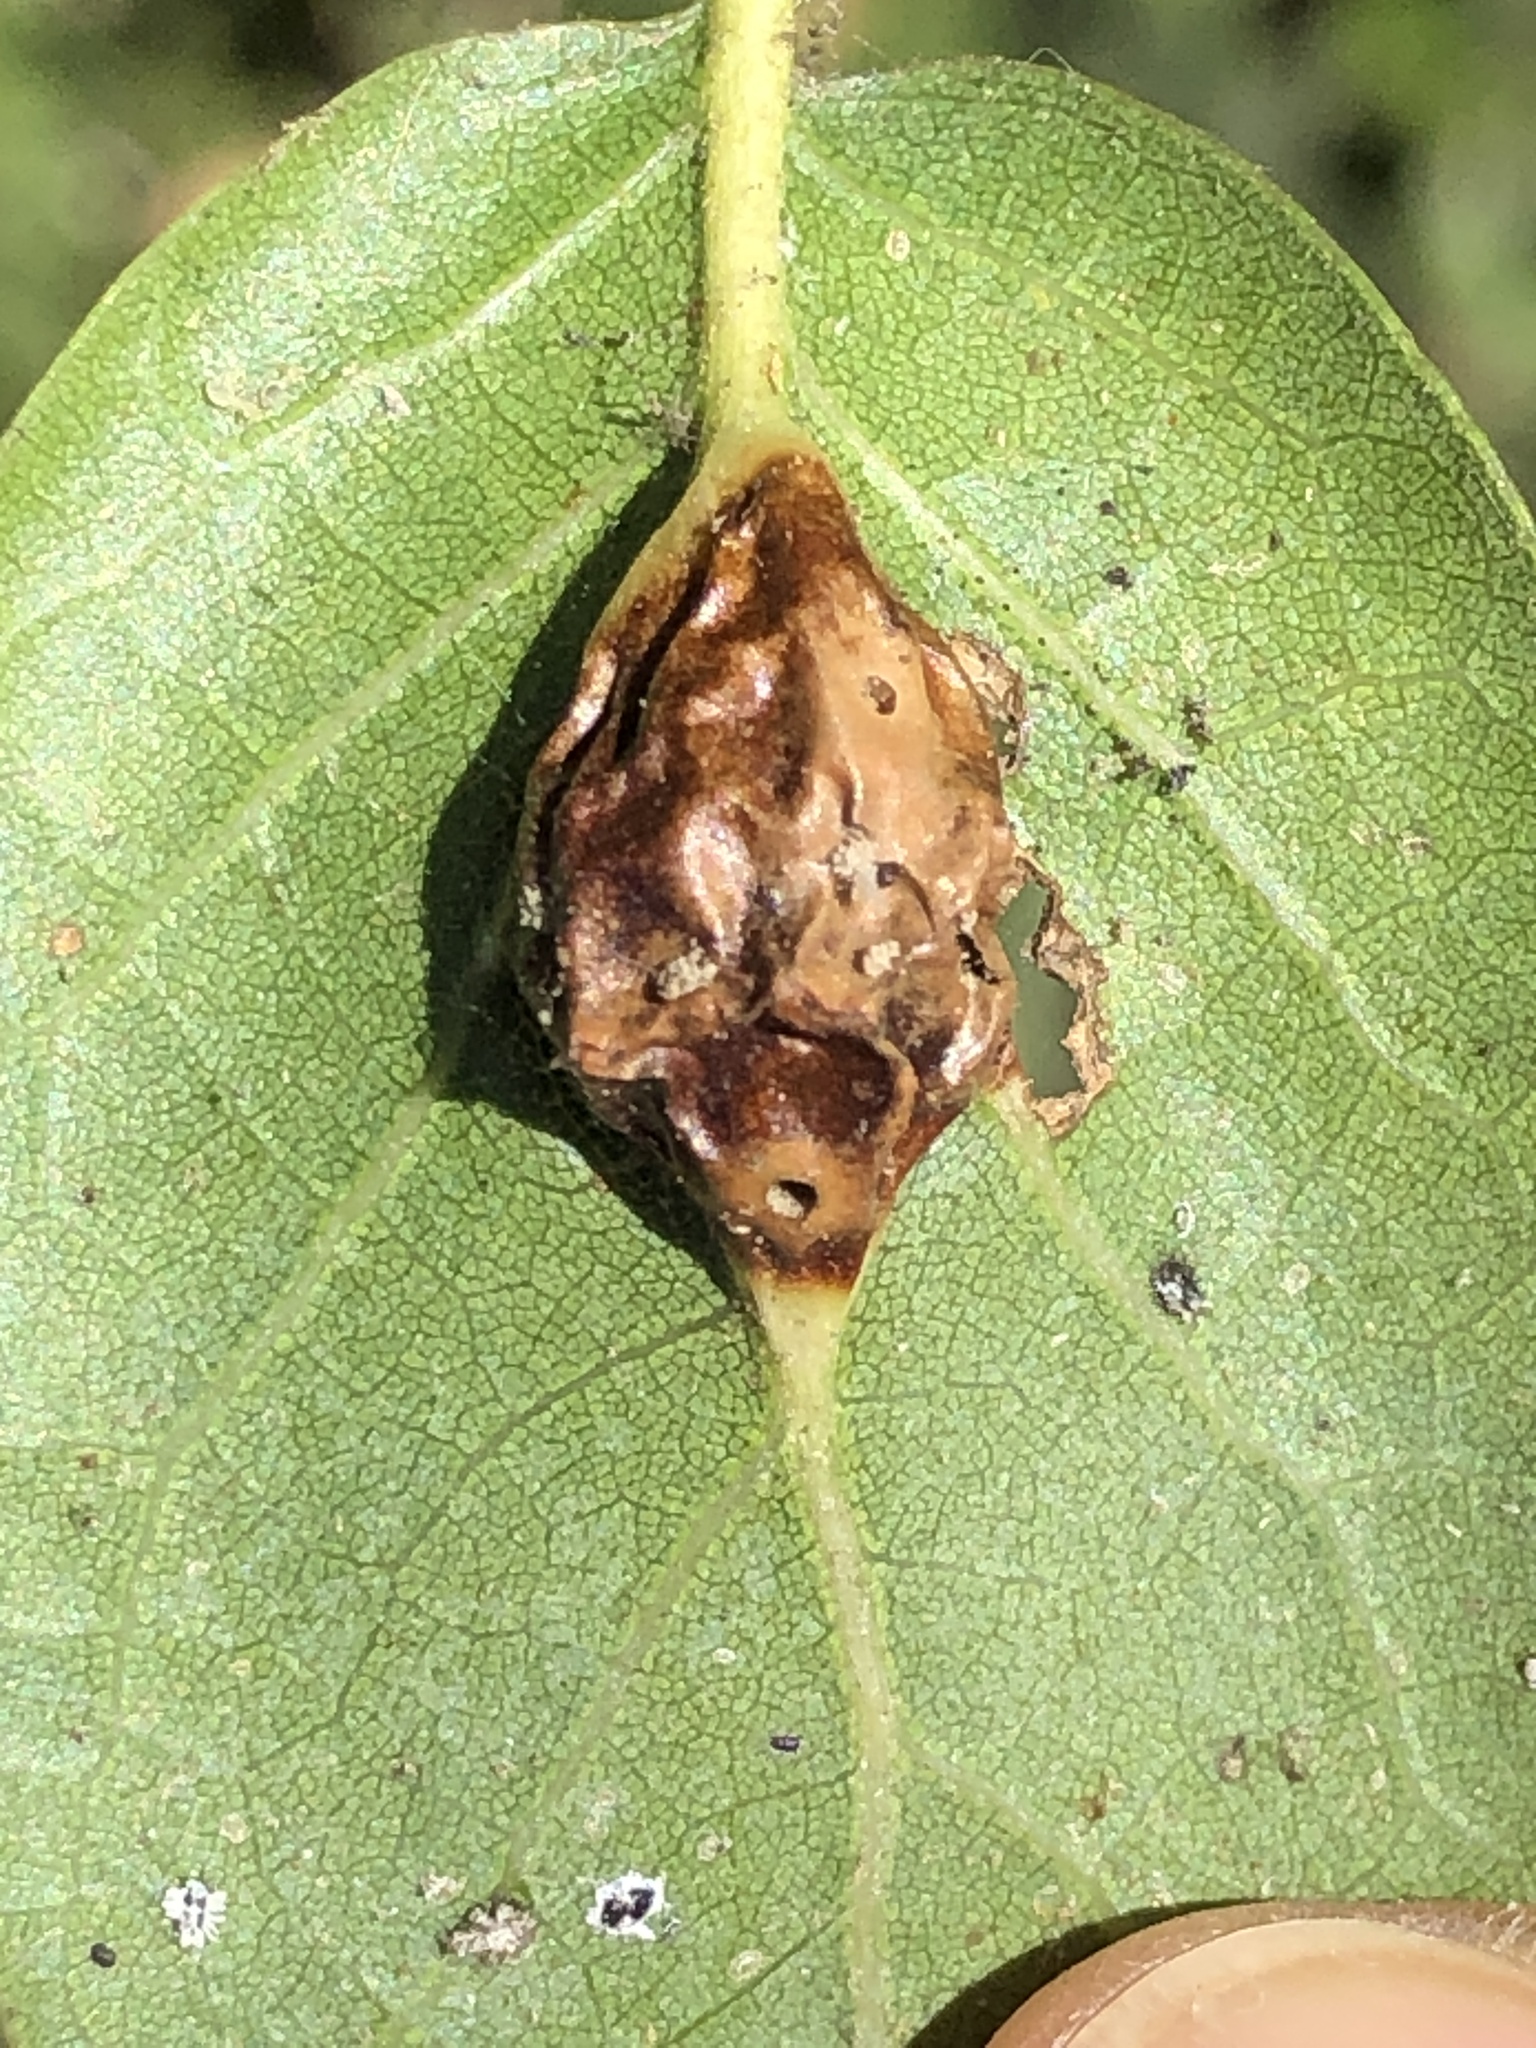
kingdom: Animalia
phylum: Arthropoda
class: Insecta
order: Hymenoptera
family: Cynipidae
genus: Melikaiella
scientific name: Melikaiella
